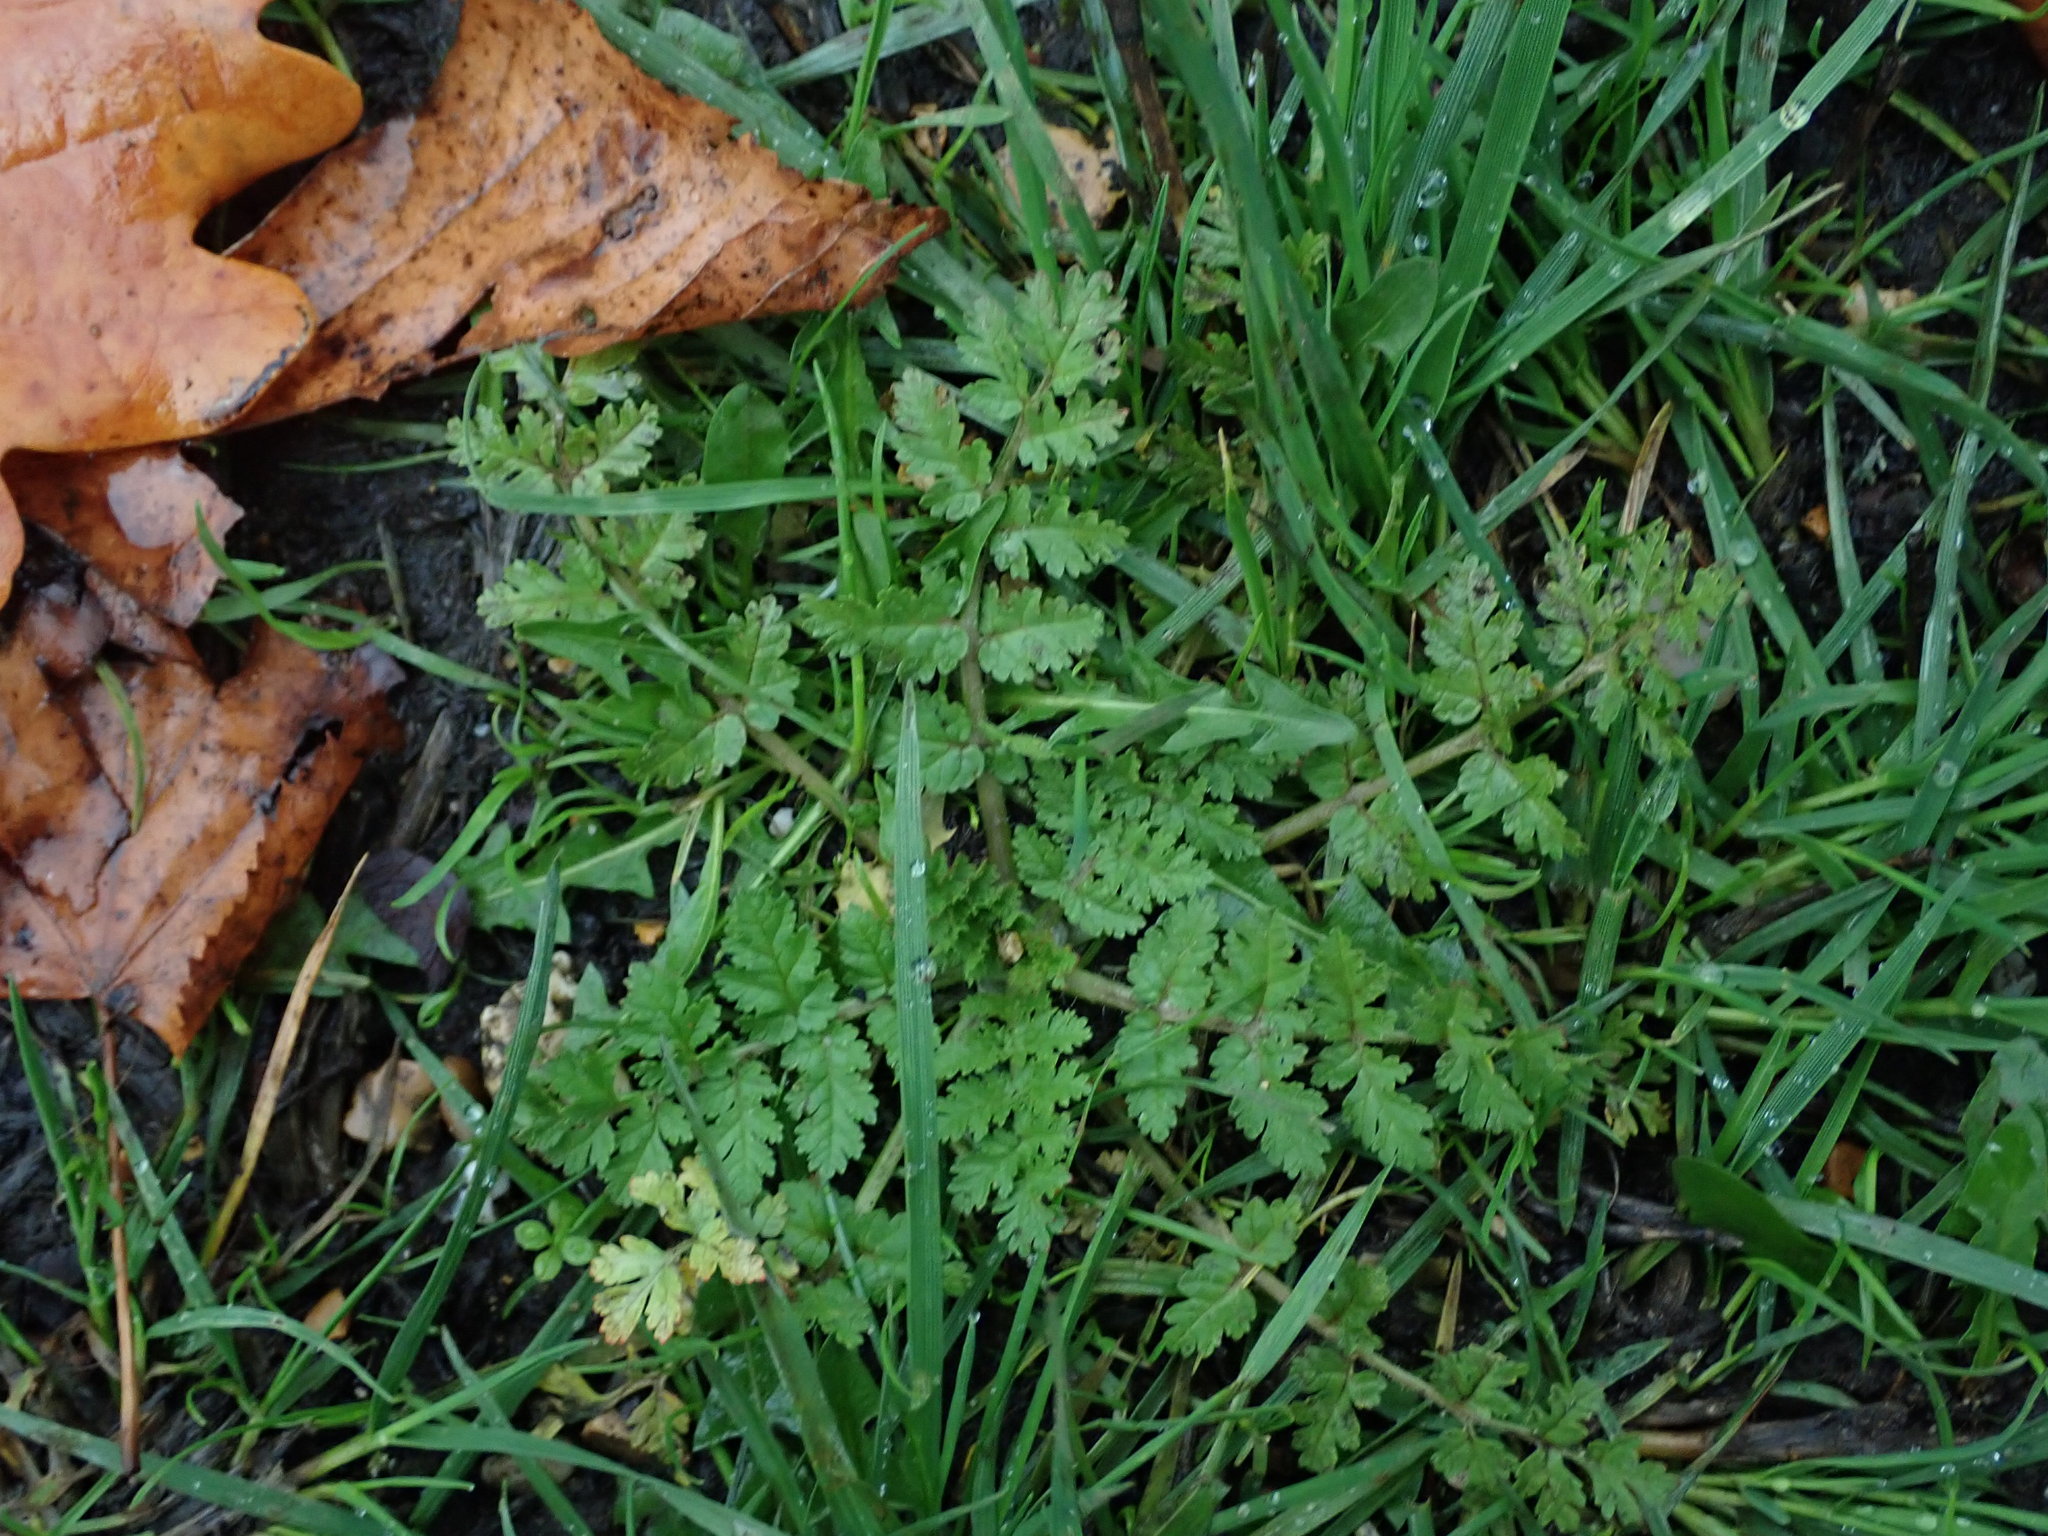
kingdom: Plantae
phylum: Tracheophyta
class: Magnoliopsida
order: Geraniales
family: Geraniaceae
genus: Erodium
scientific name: Erodium cicutarium
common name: Common stork's-bill
